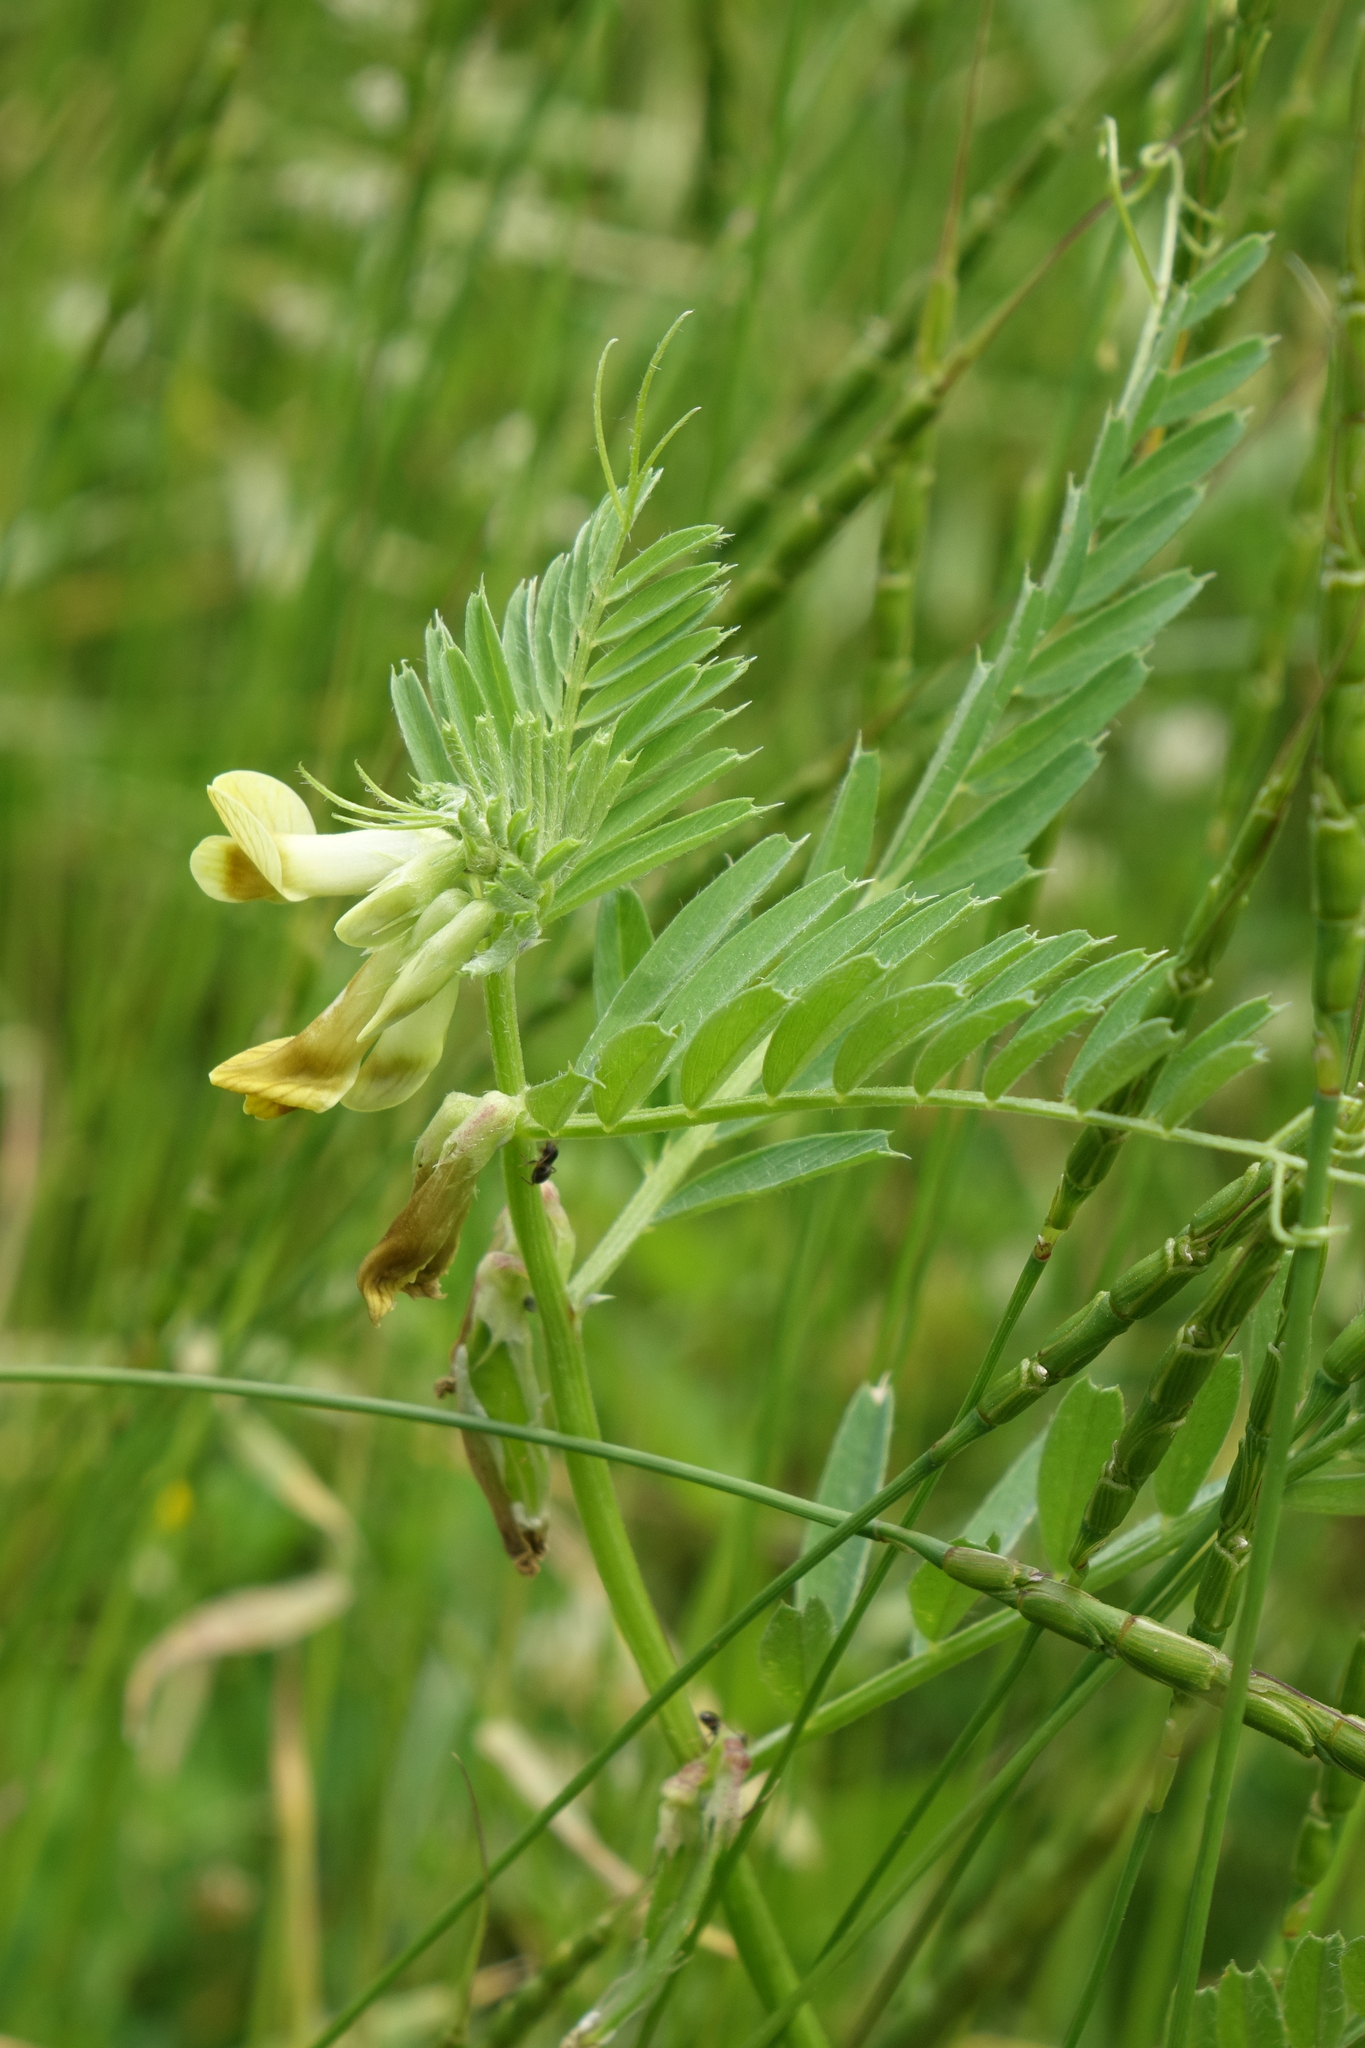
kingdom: Plantae
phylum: Tracheophyta
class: Magnoliopsida
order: Fabales
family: Fabaceae
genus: Vicia
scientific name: Vicia grandiflora
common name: Large yellow vetch
